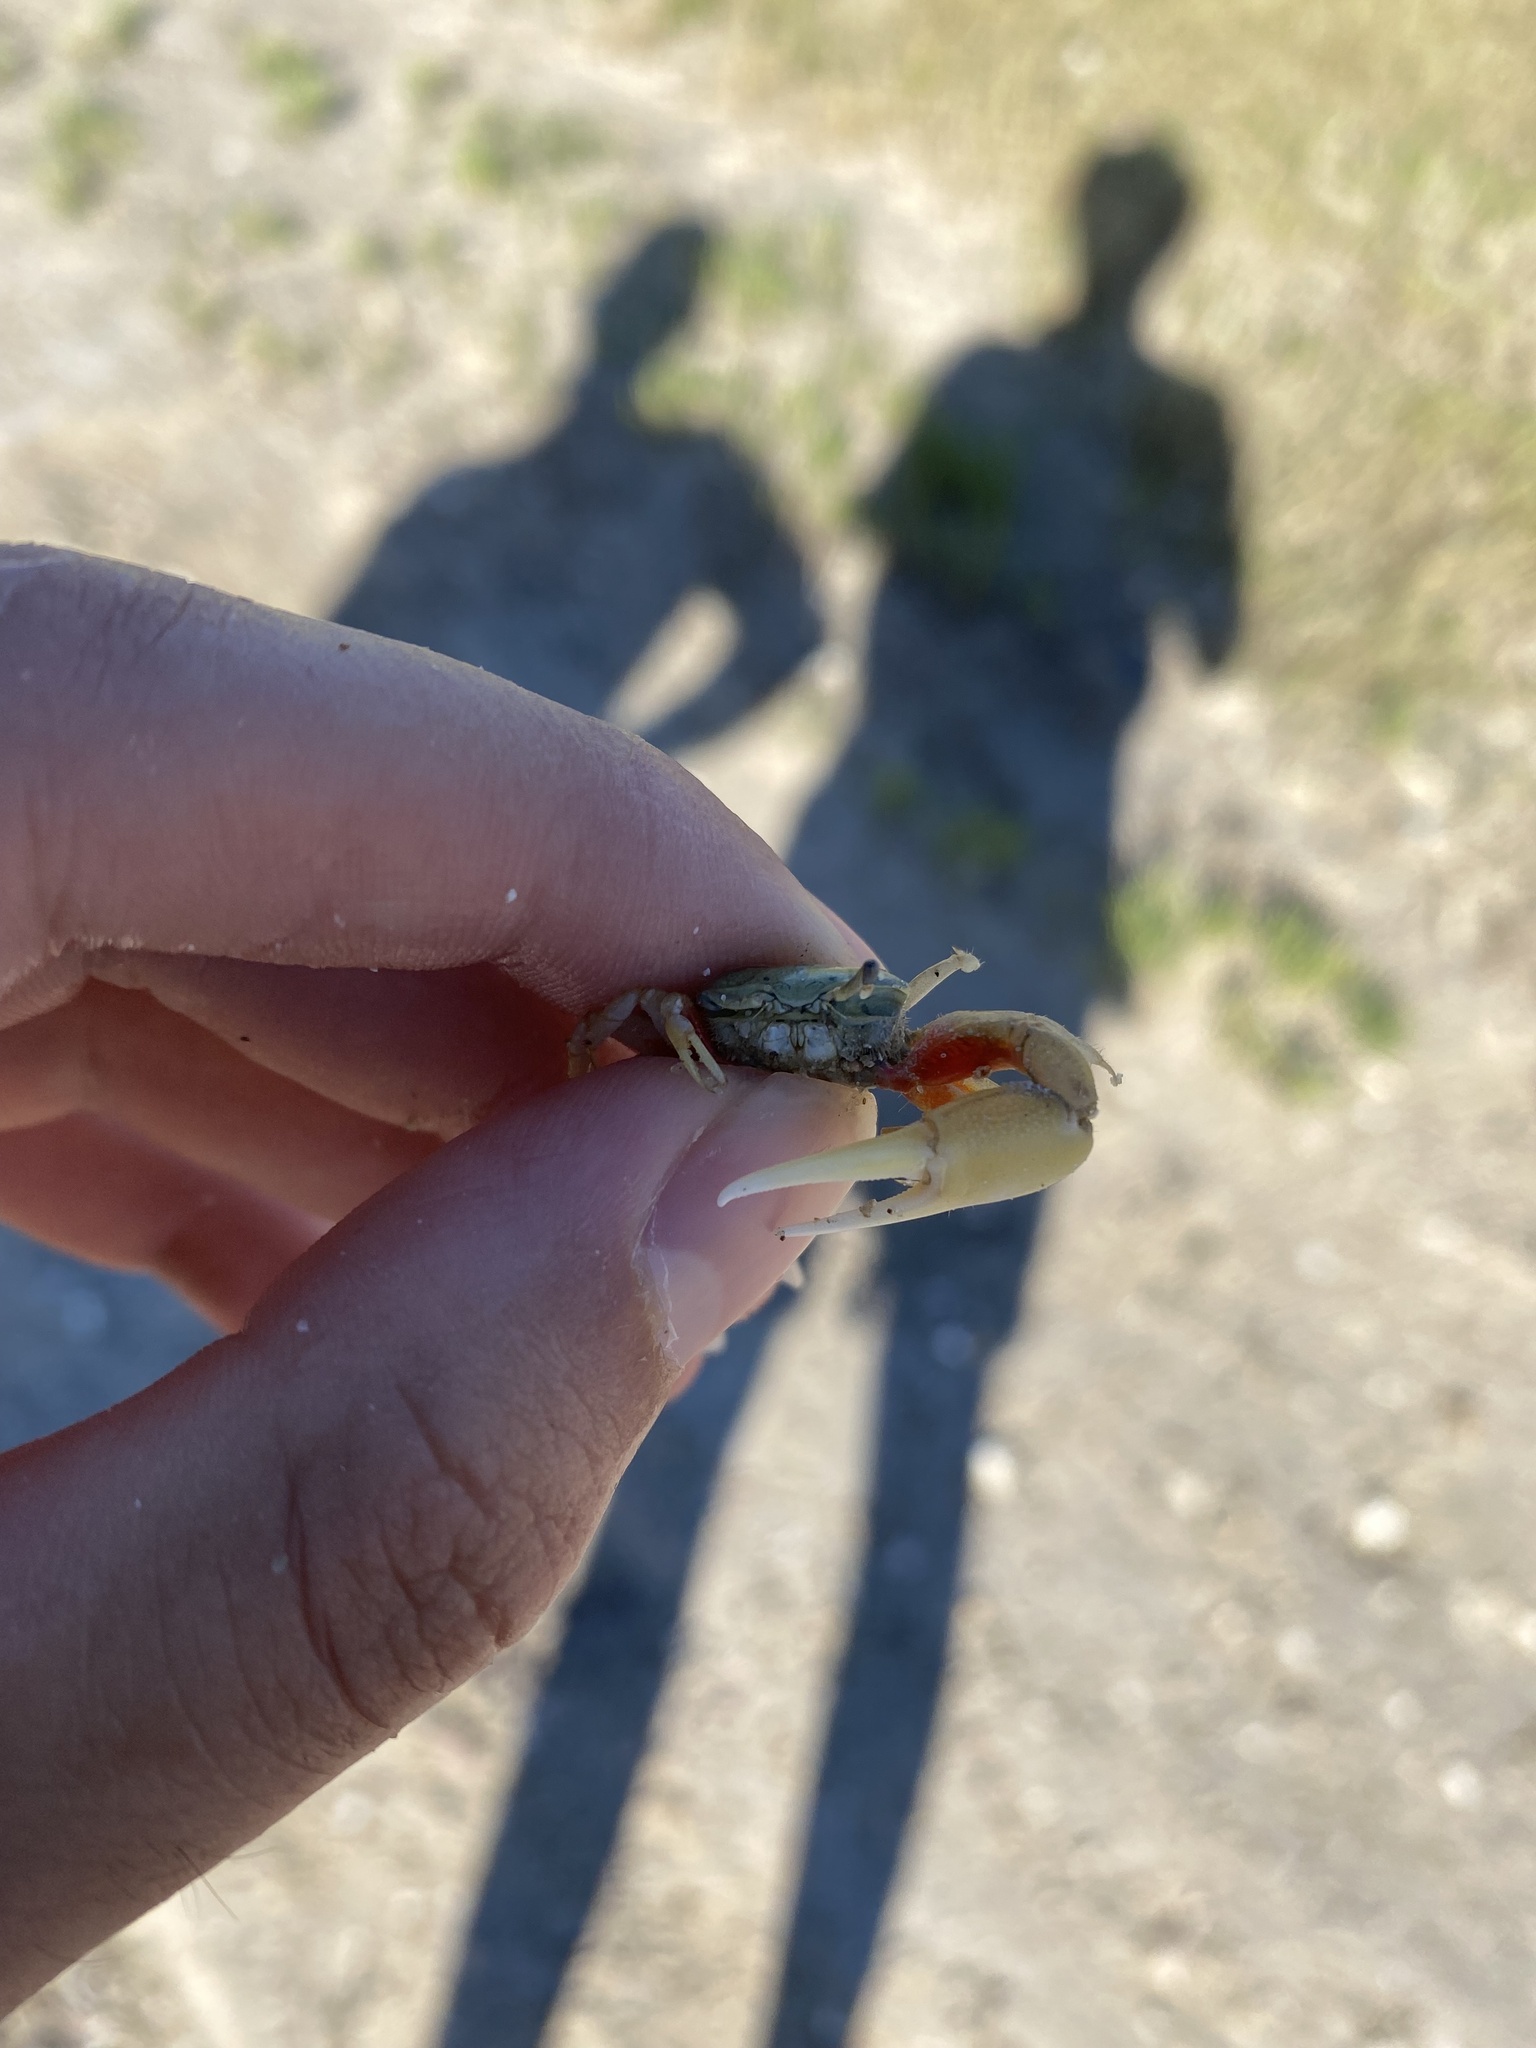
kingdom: Animalia
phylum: Arthropoda
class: Malacostraca
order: Decapoda
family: Ocypodidae
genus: Leptuca
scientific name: Leptuca crenulata
